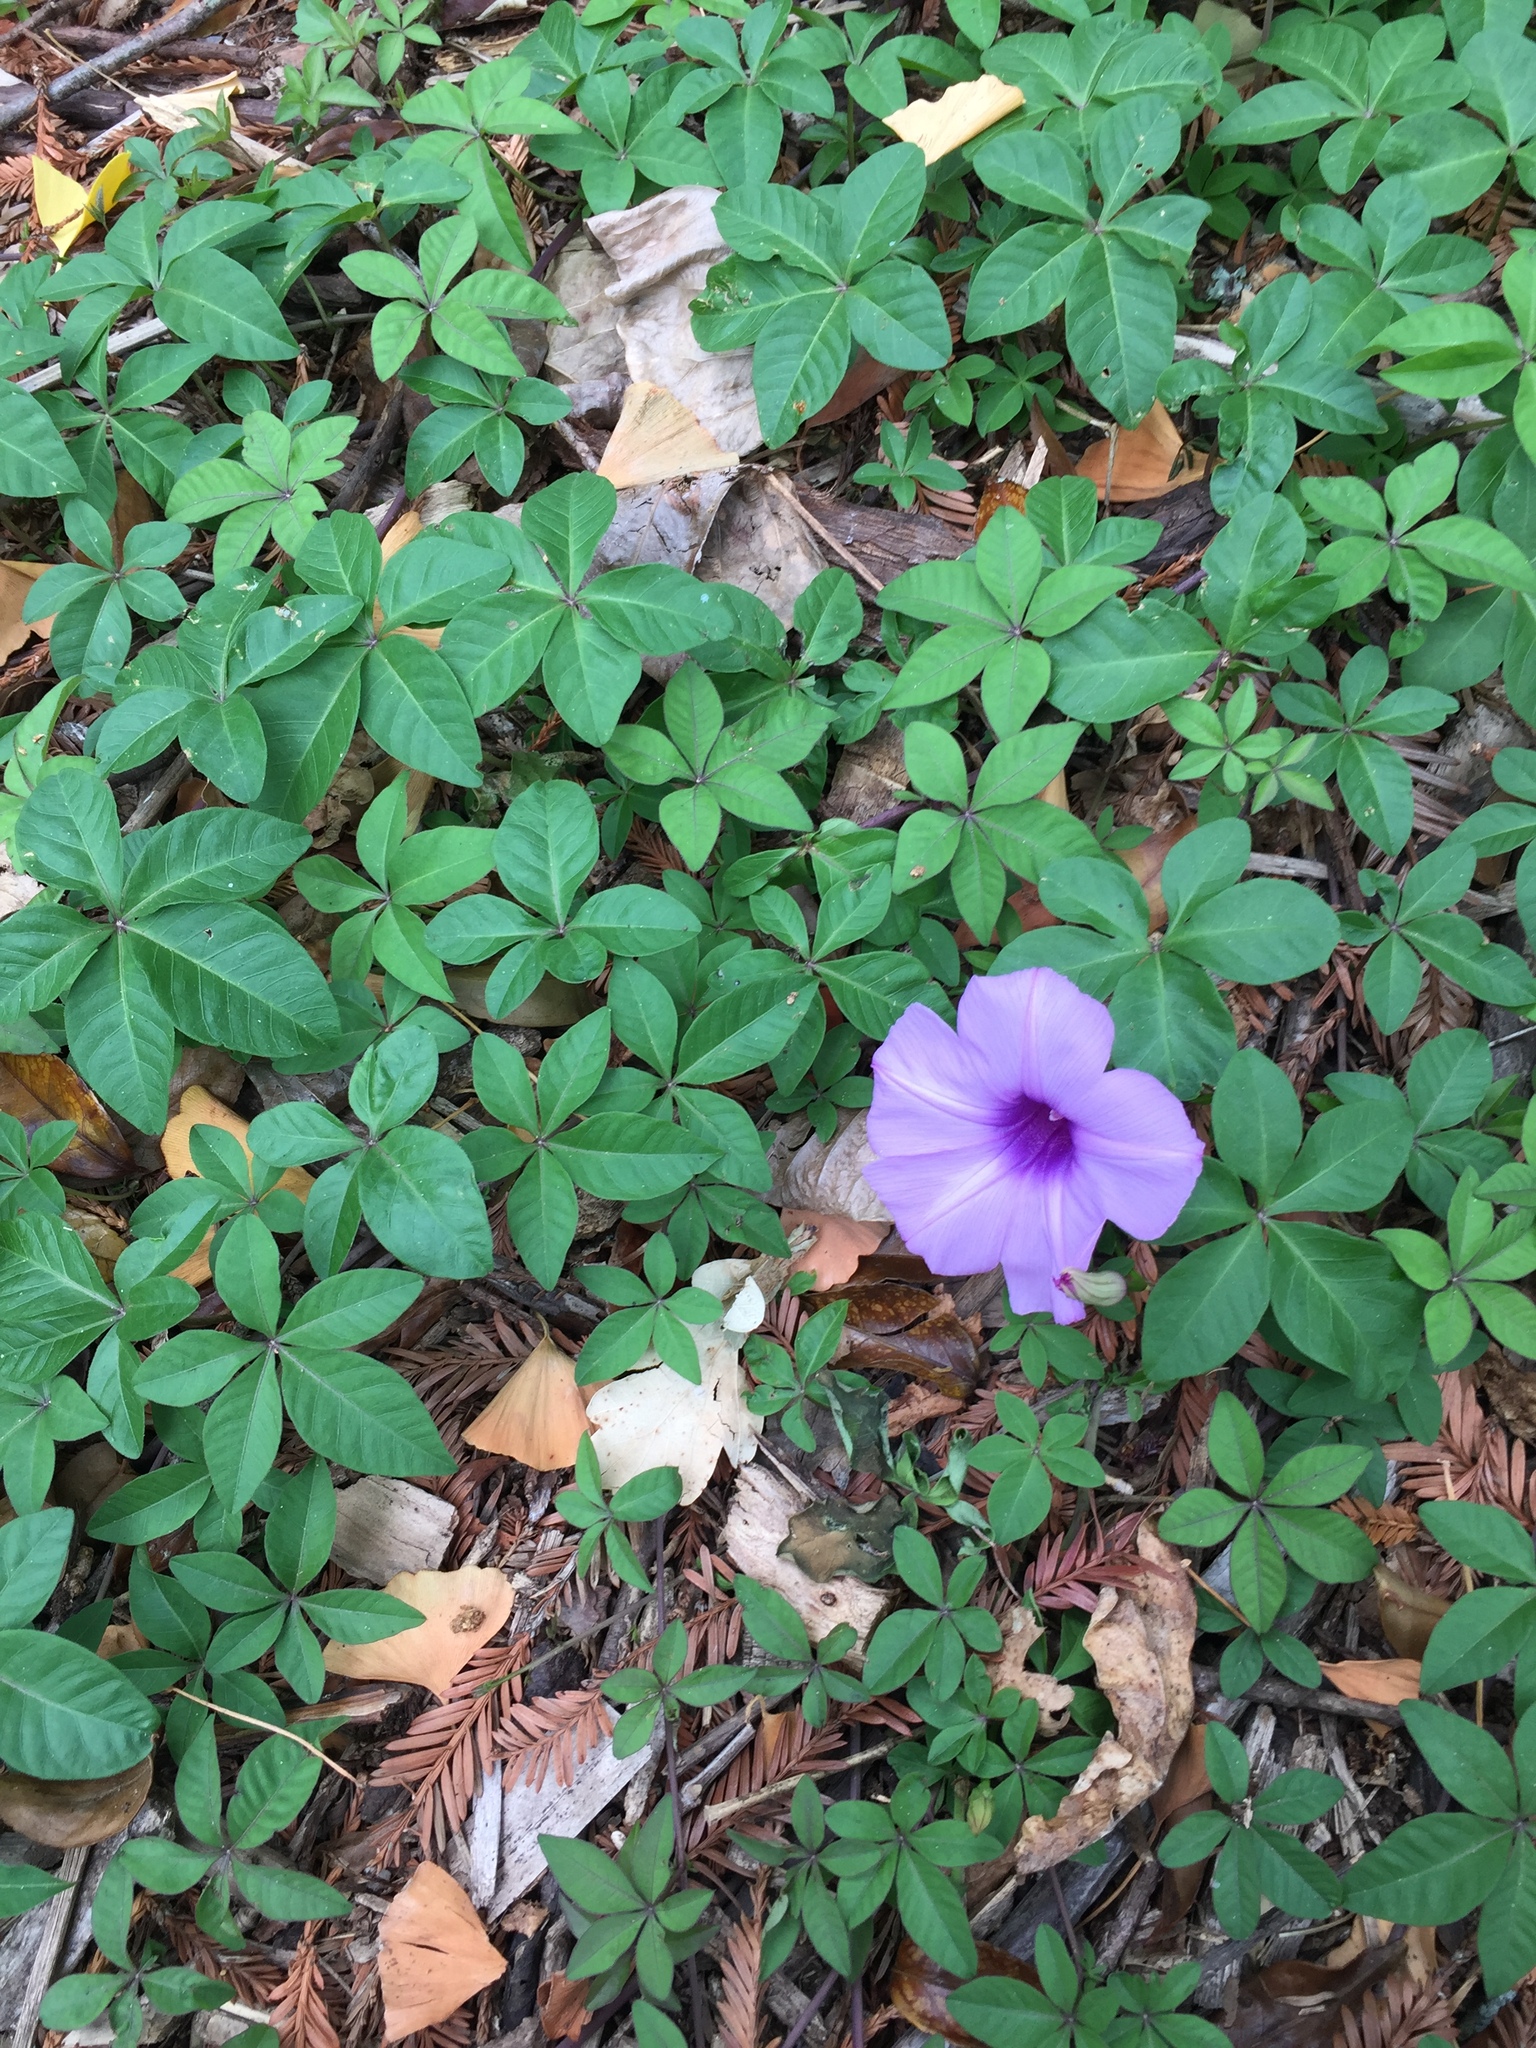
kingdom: Plantae
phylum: Tracheophyta
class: Magnoliopsida
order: Solanales
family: Convolvulaceae
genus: Ipomoea
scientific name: Ipomoea cairica
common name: Mile a minute vine
